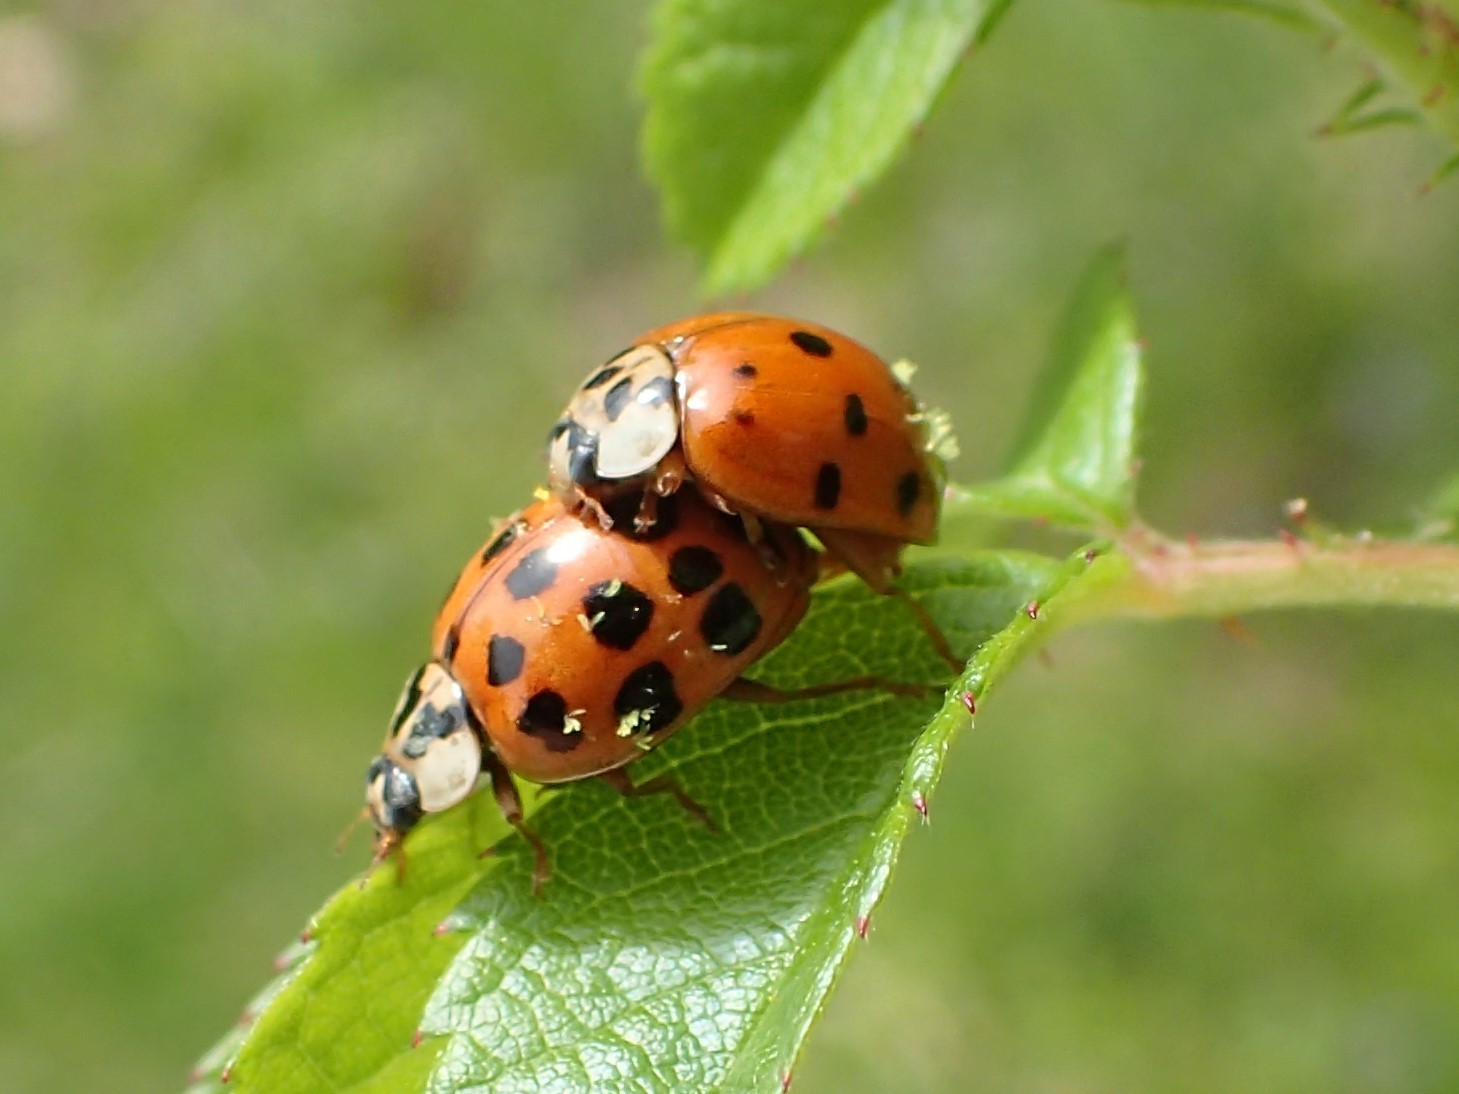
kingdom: Animalia
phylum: Arthropoda
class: Insecta
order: Coleoptera
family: Coccinellidae
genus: Harmonia
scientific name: Harmonia axyridis
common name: Harlequin ladybird
